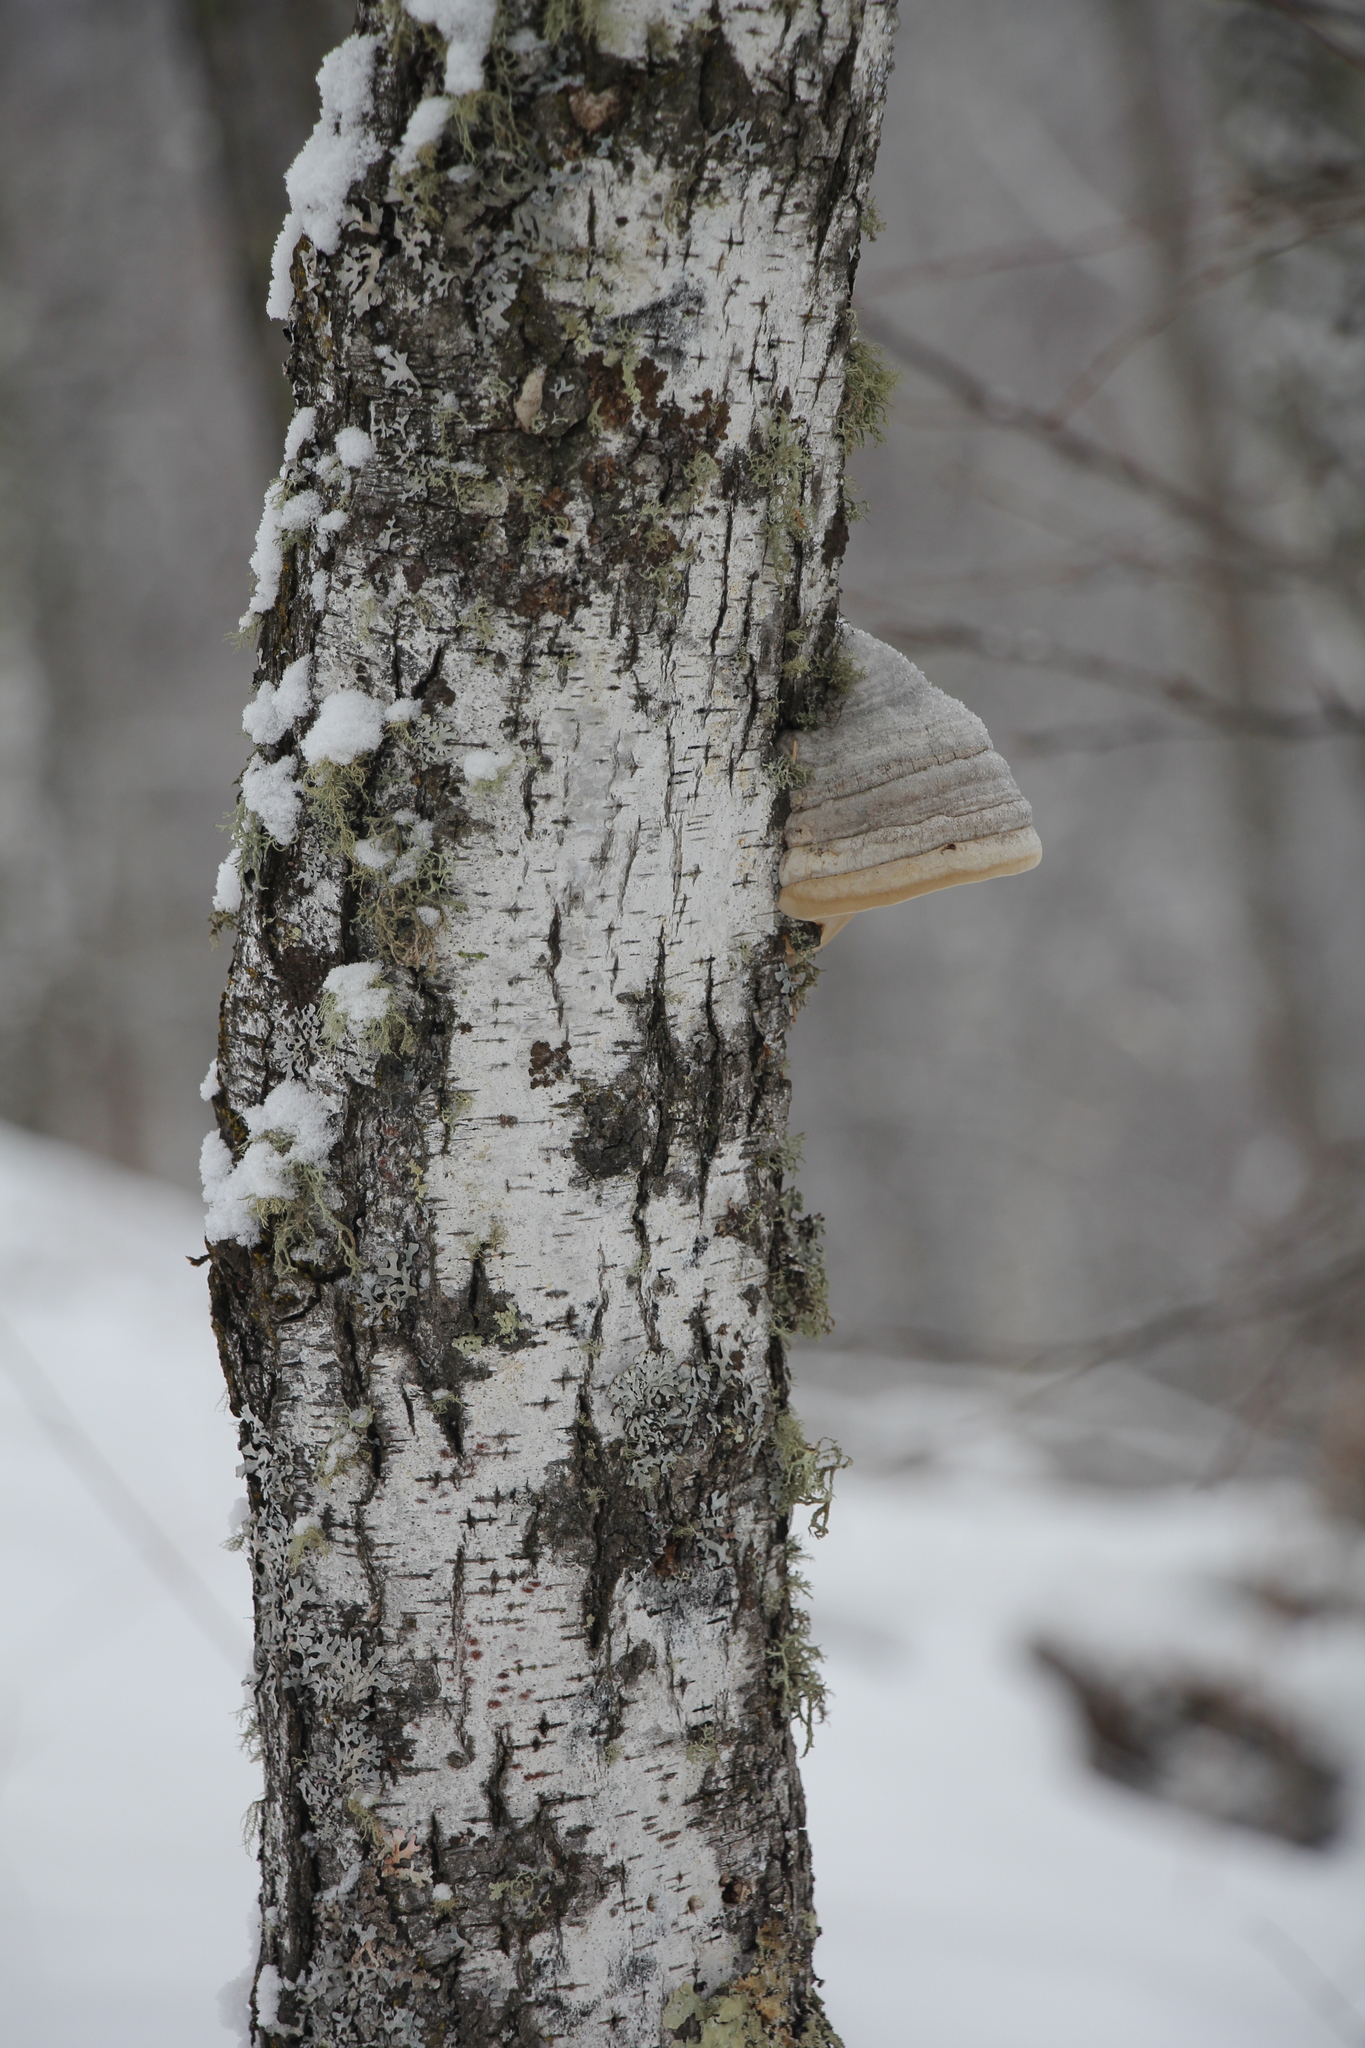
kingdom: Fungi
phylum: Basidiomycota
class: Agaricomycetes
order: Polyporales
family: Polyporaceae
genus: Fomes
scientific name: Fomes fomentarius
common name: Hoof fungus
